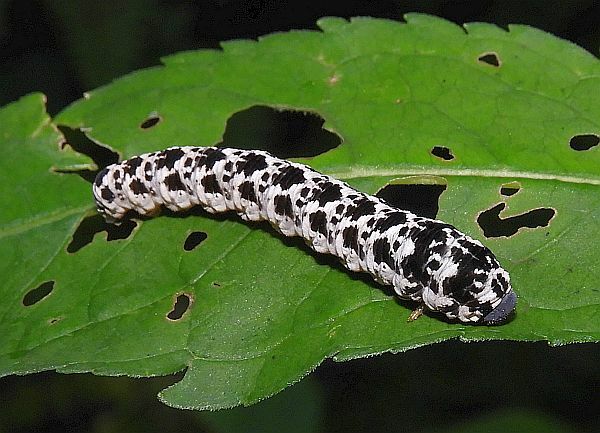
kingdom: Animalia
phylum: Arthropoda
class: Insecta
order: Hymenoptera
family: Tenthredinidae
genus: Tenthredo
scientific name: Tenthredo
